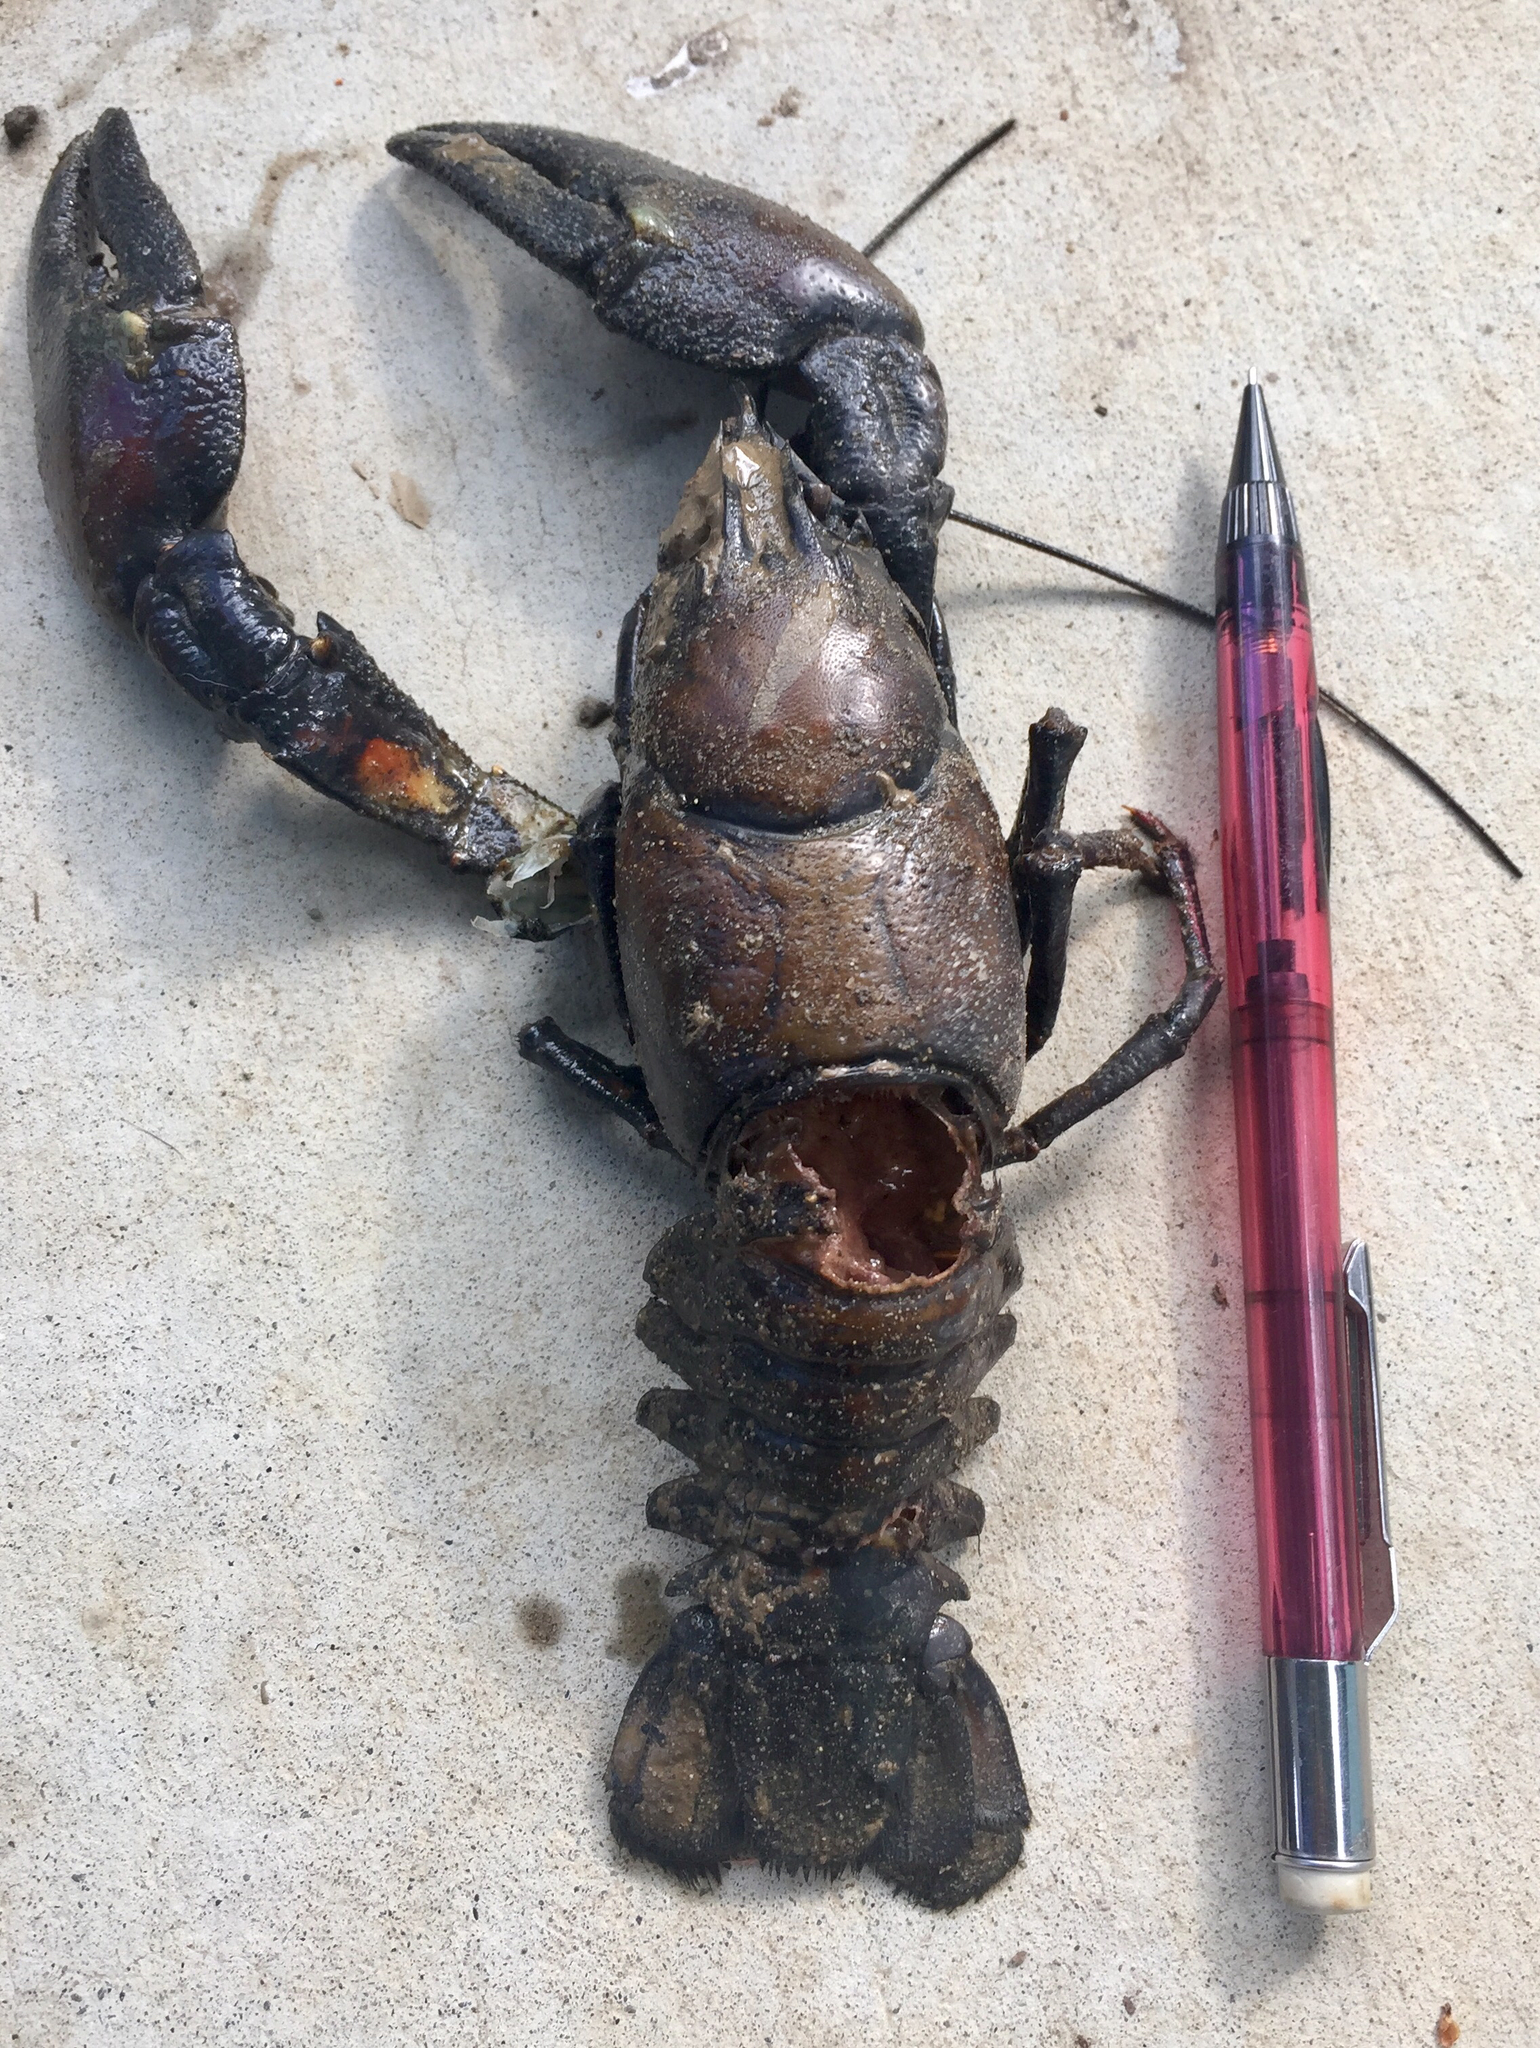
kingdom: Animalia
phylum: Arthropoda
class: Malacostraca
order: Decapoda
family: Astacidae
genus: Pacifastacus
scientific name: Pacifastacus leniusculus
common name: Signal crayfish
